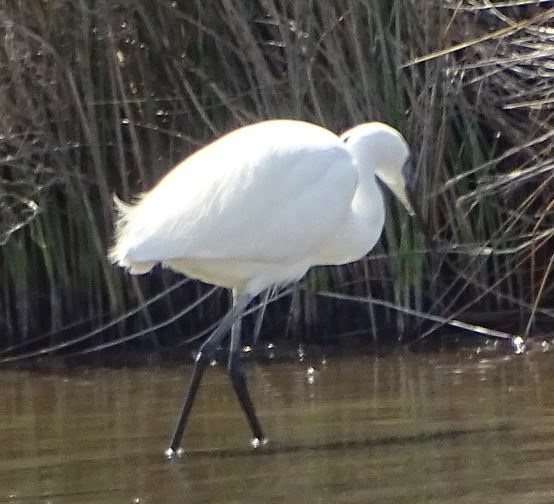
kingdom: Animalia
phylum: Chordata
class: Aves
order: Pelecaniformes
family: Ardeidae
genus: Egretta
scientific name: Egretta garzetta
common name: Little egret
